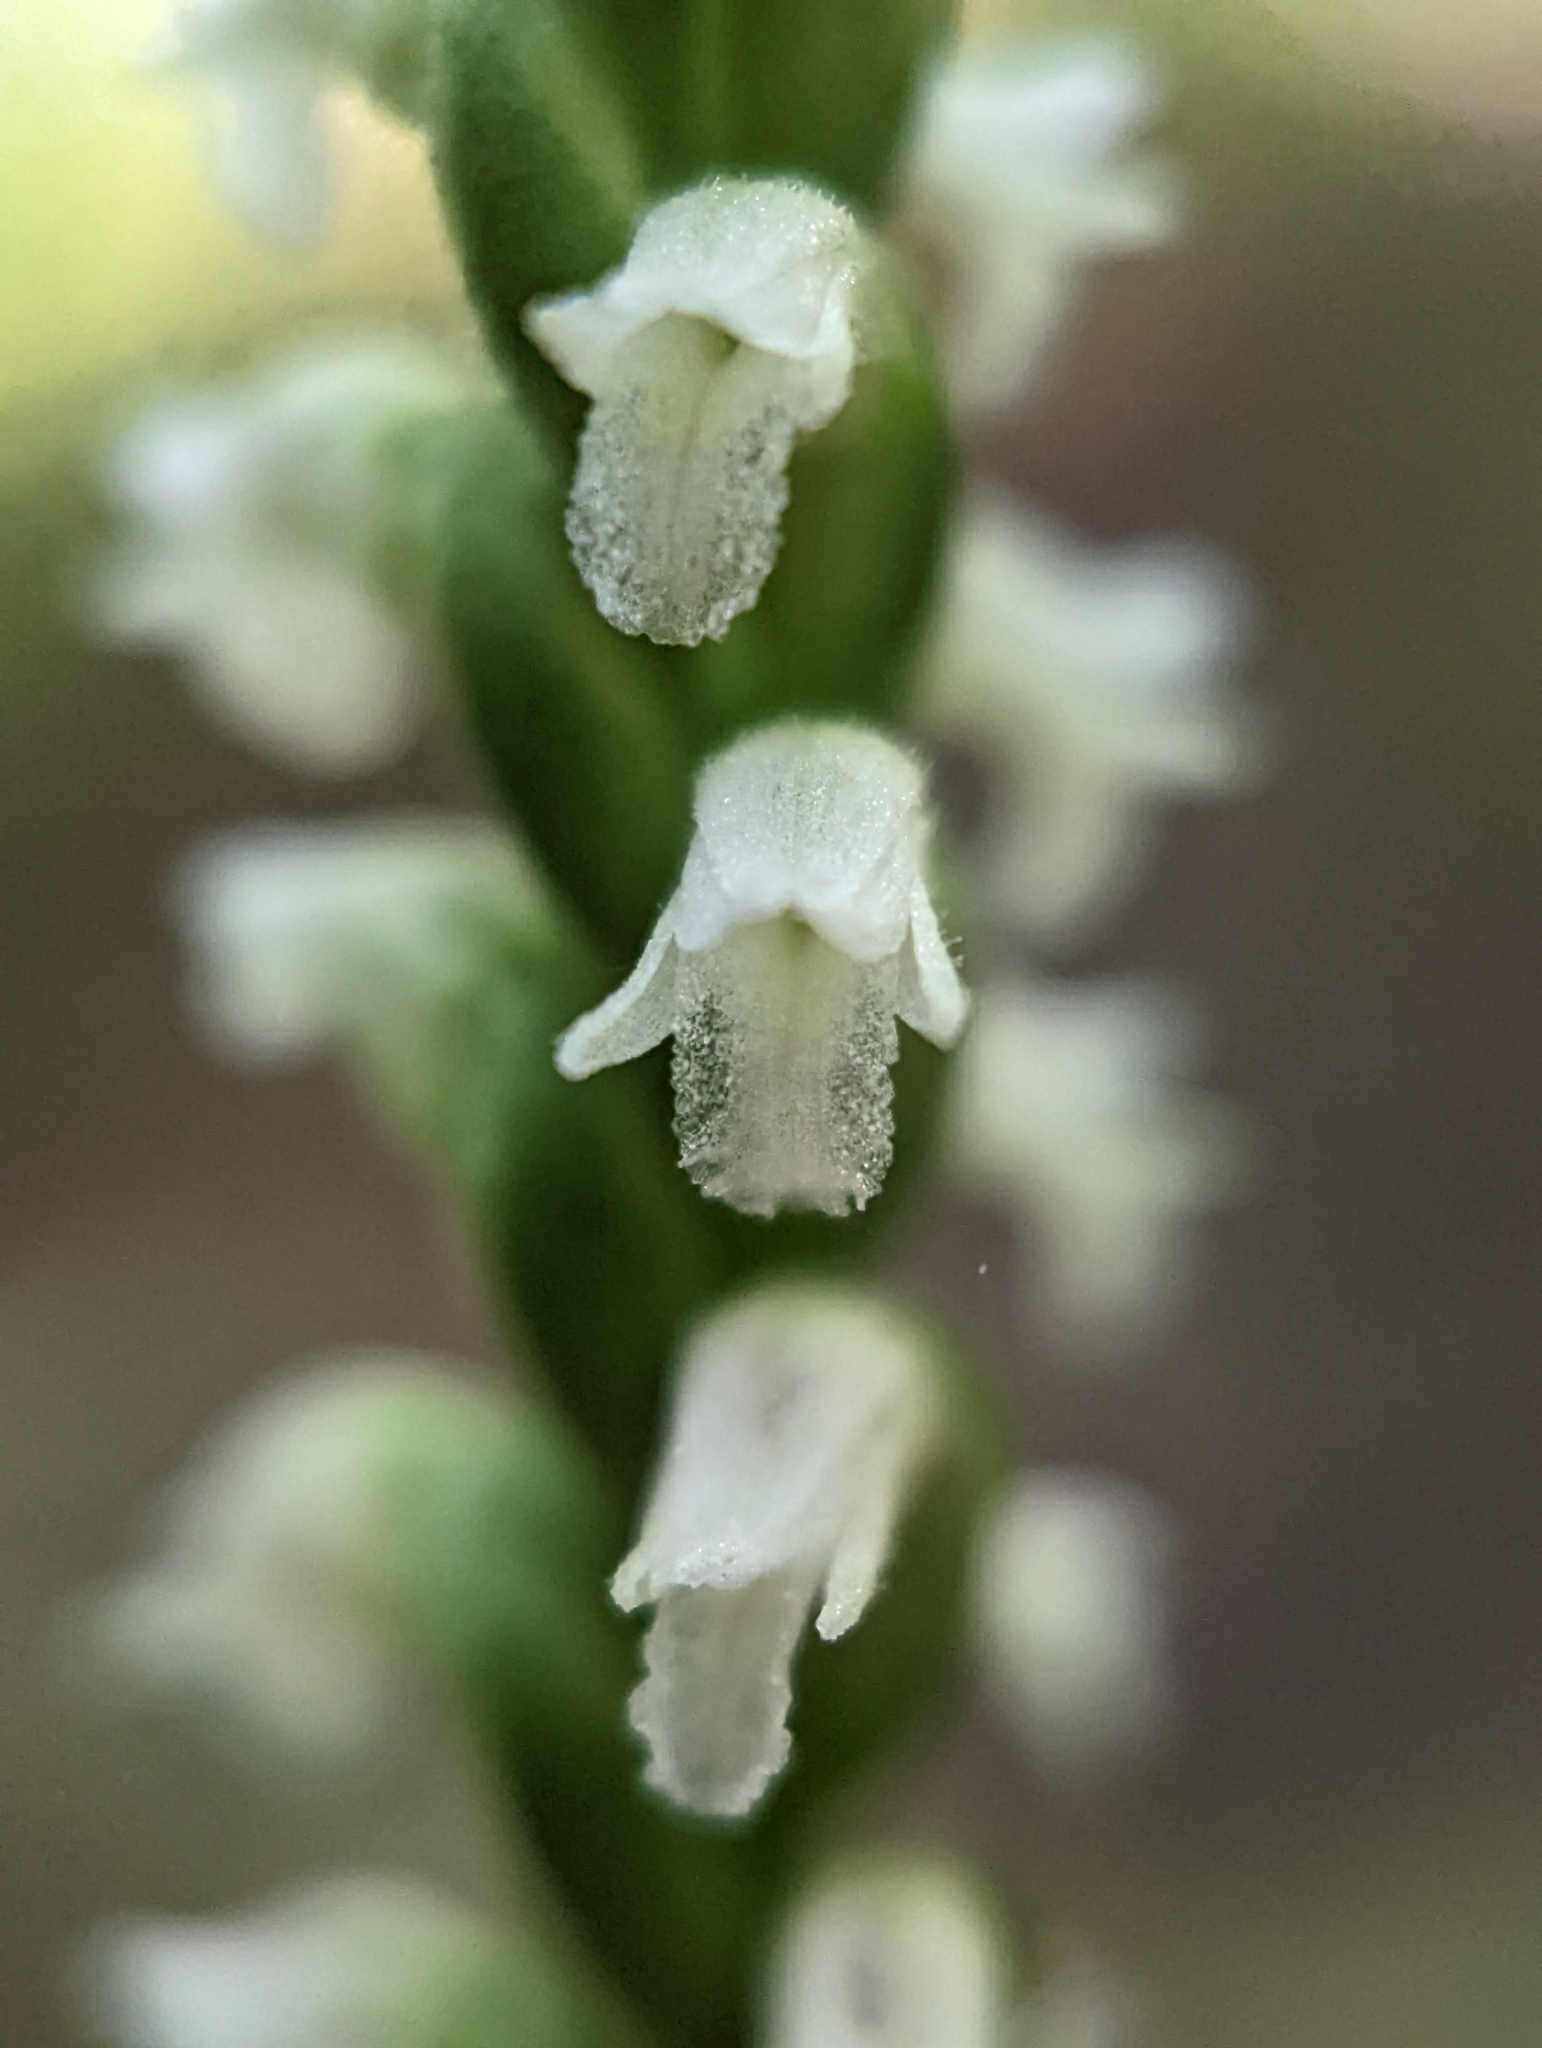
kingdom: Plantae
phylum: Tracheophyta
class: Liliopsida
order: Asparagales
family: Orchidaceae
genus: Spiranthes
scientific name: Spiranthes ovalis
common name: October ladies'-tresses
